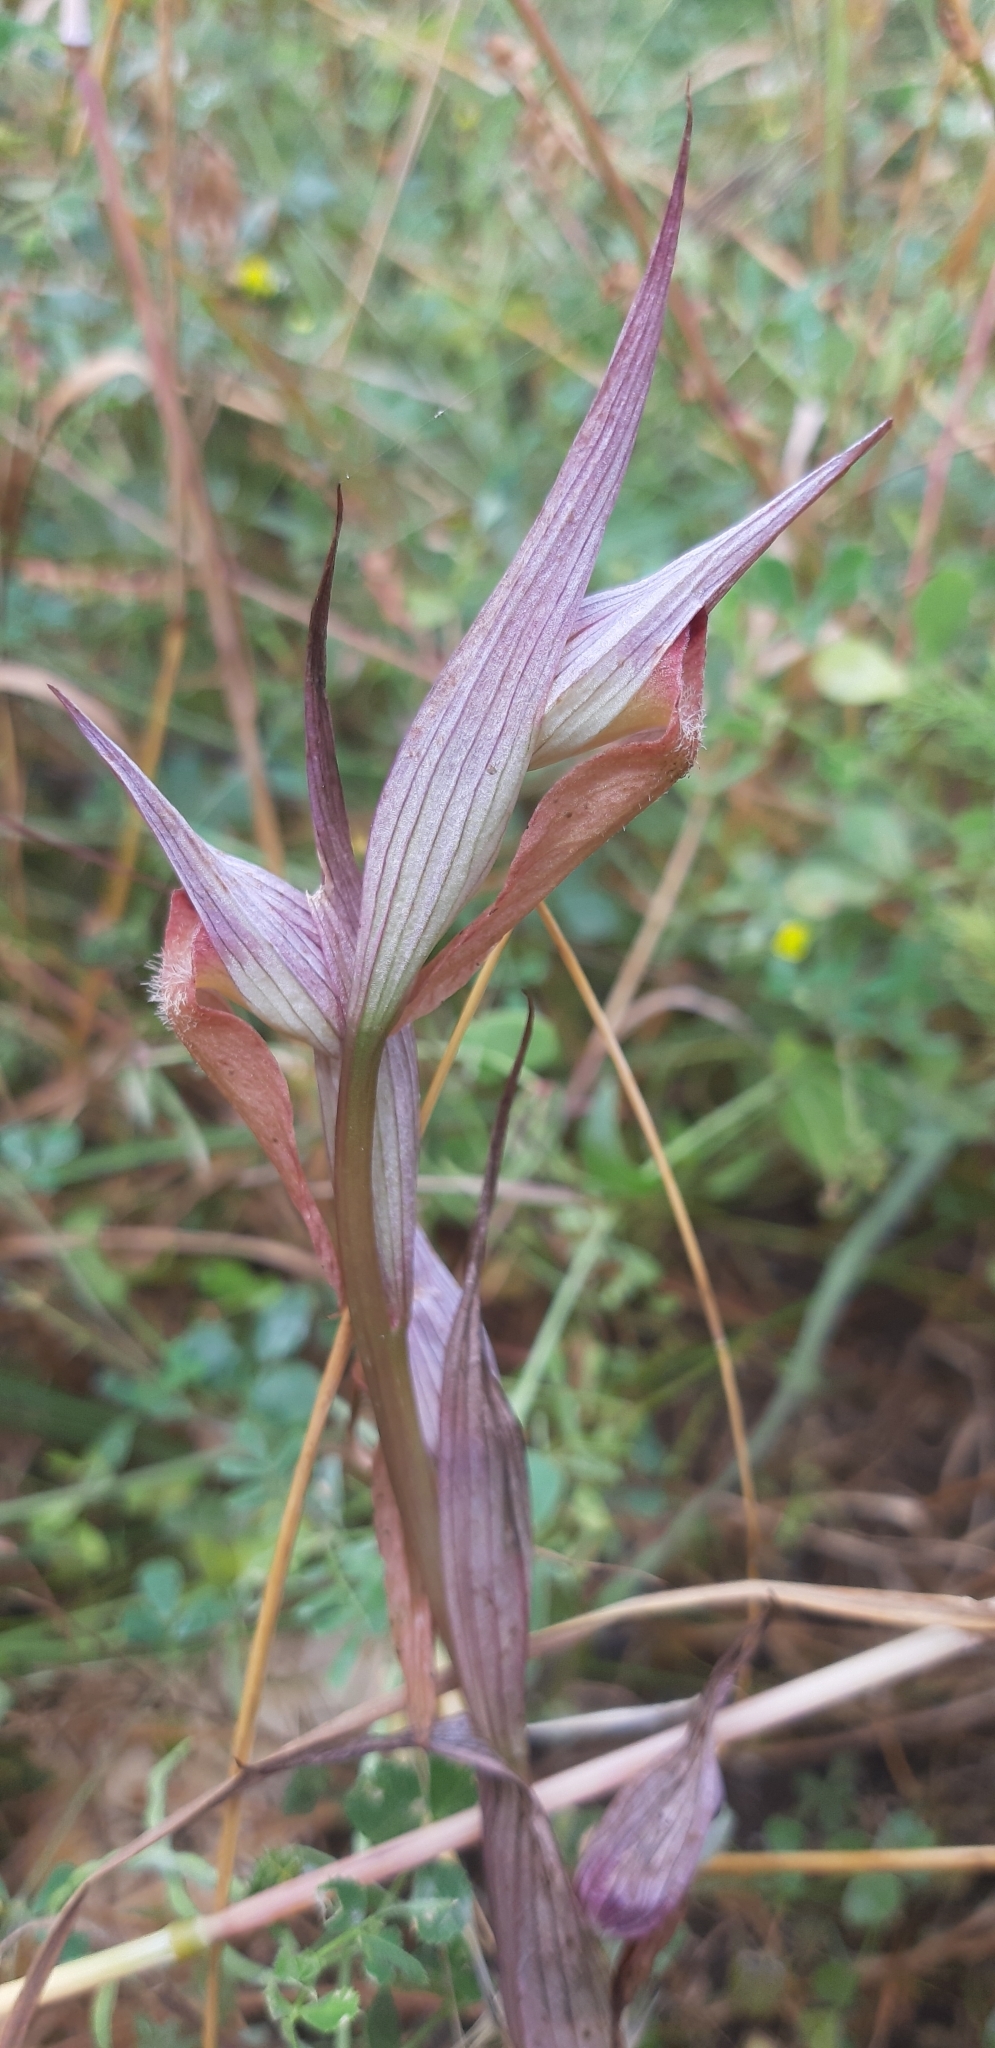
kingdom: Plantae
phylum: Tracheophyta
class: Liliopsida
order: Asparagales
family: Orchidaceae
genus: Serapias
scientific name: Serapias vomeracea
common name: Long-lipped tongue-orchid
